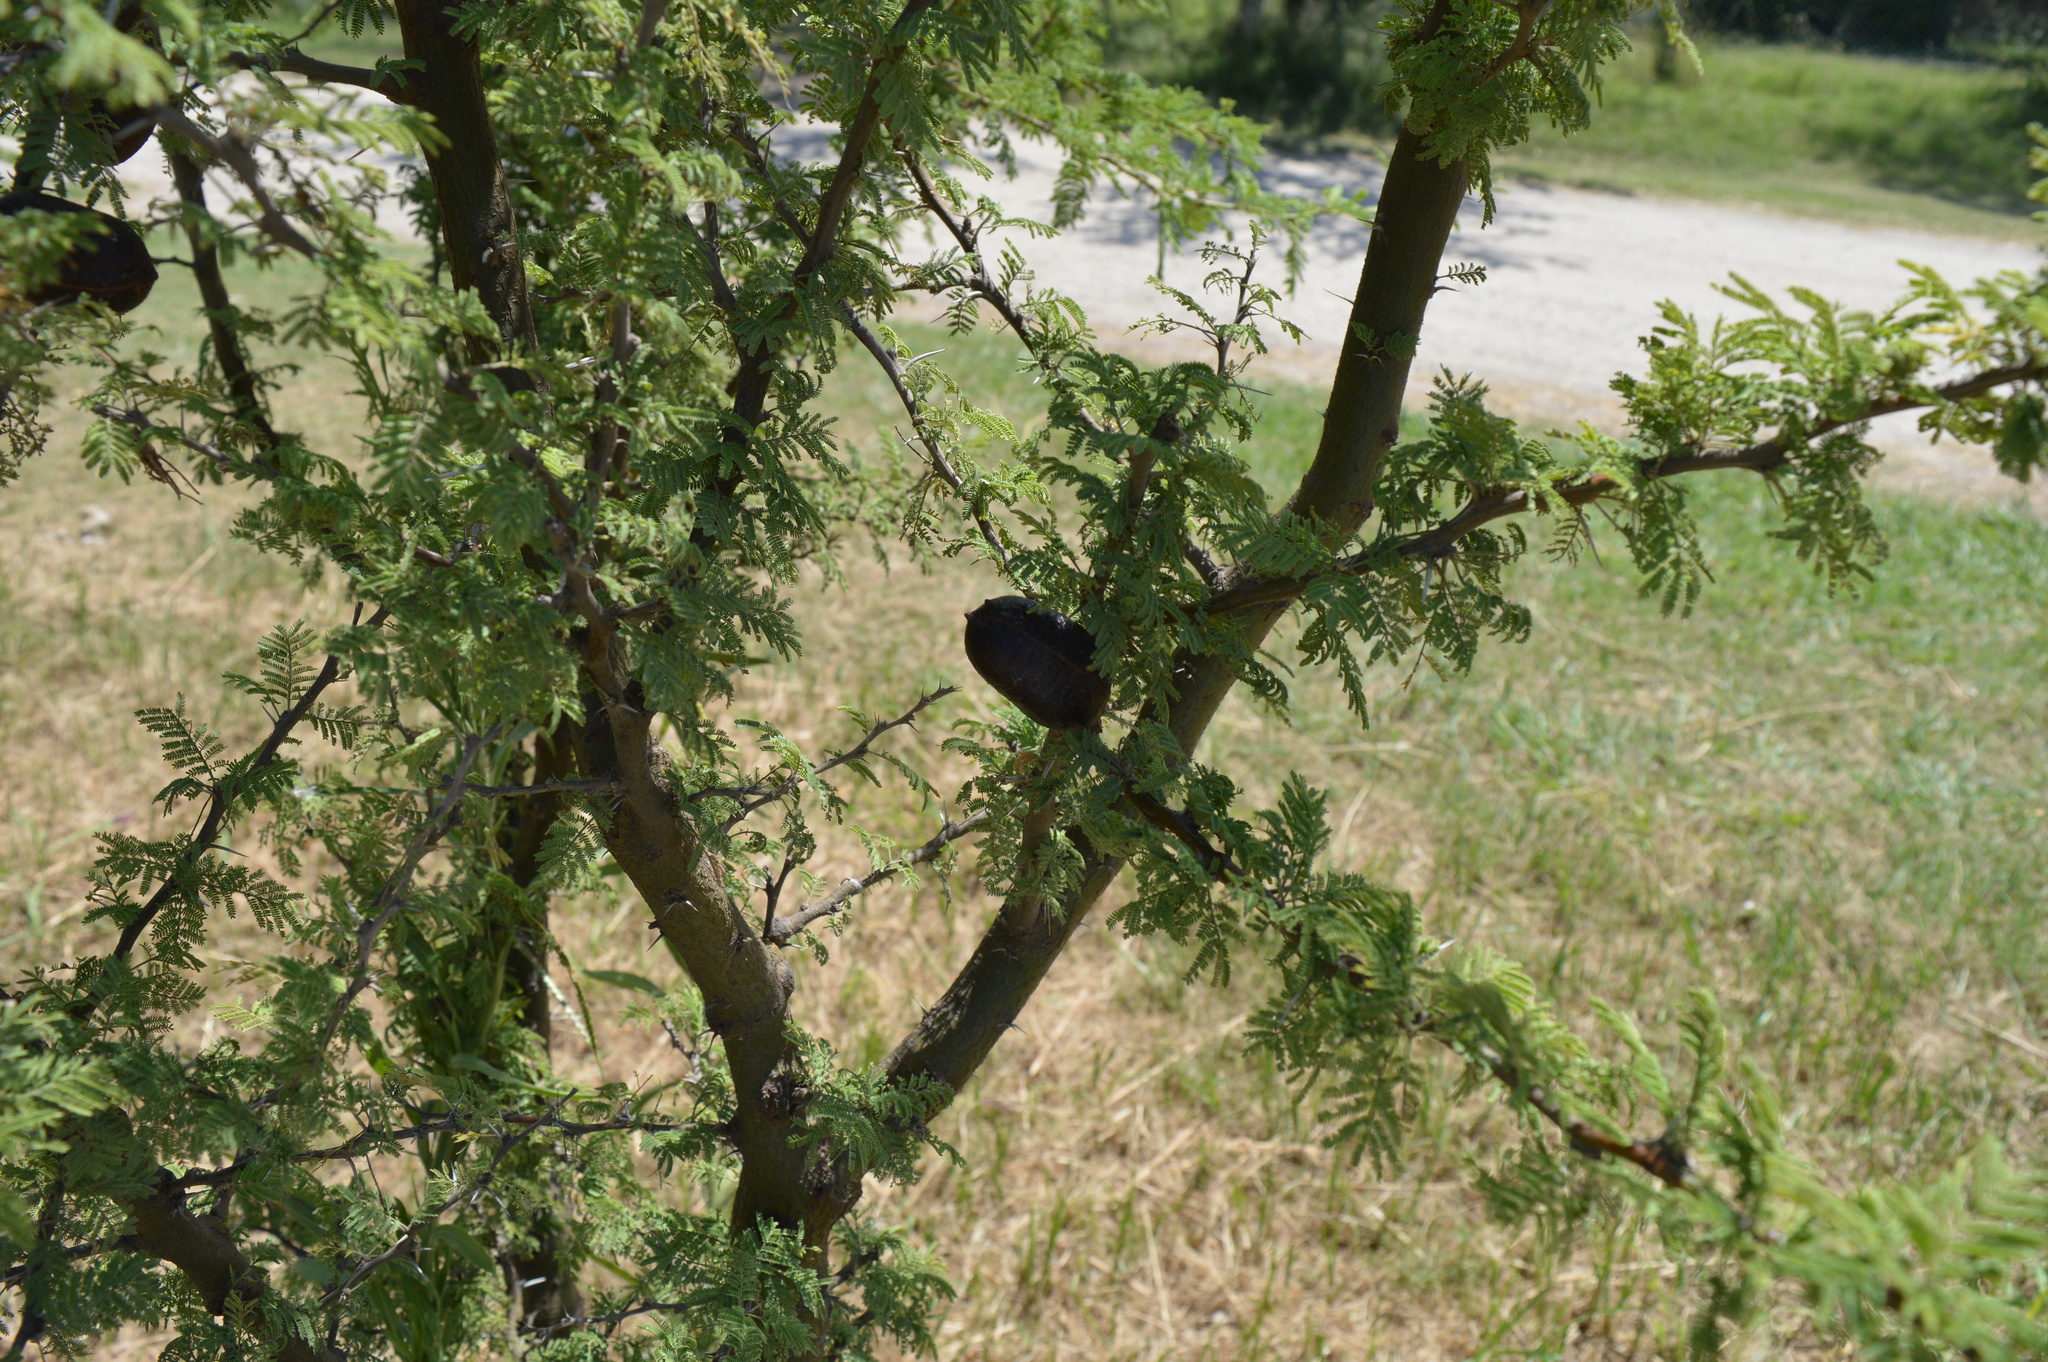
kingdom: Plantae
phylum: Tracheophyta
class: Magnoliopsida
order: Fabales
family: Fabaceae
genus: Vachellia
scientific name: Vachellia caven
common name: Roman cassie
